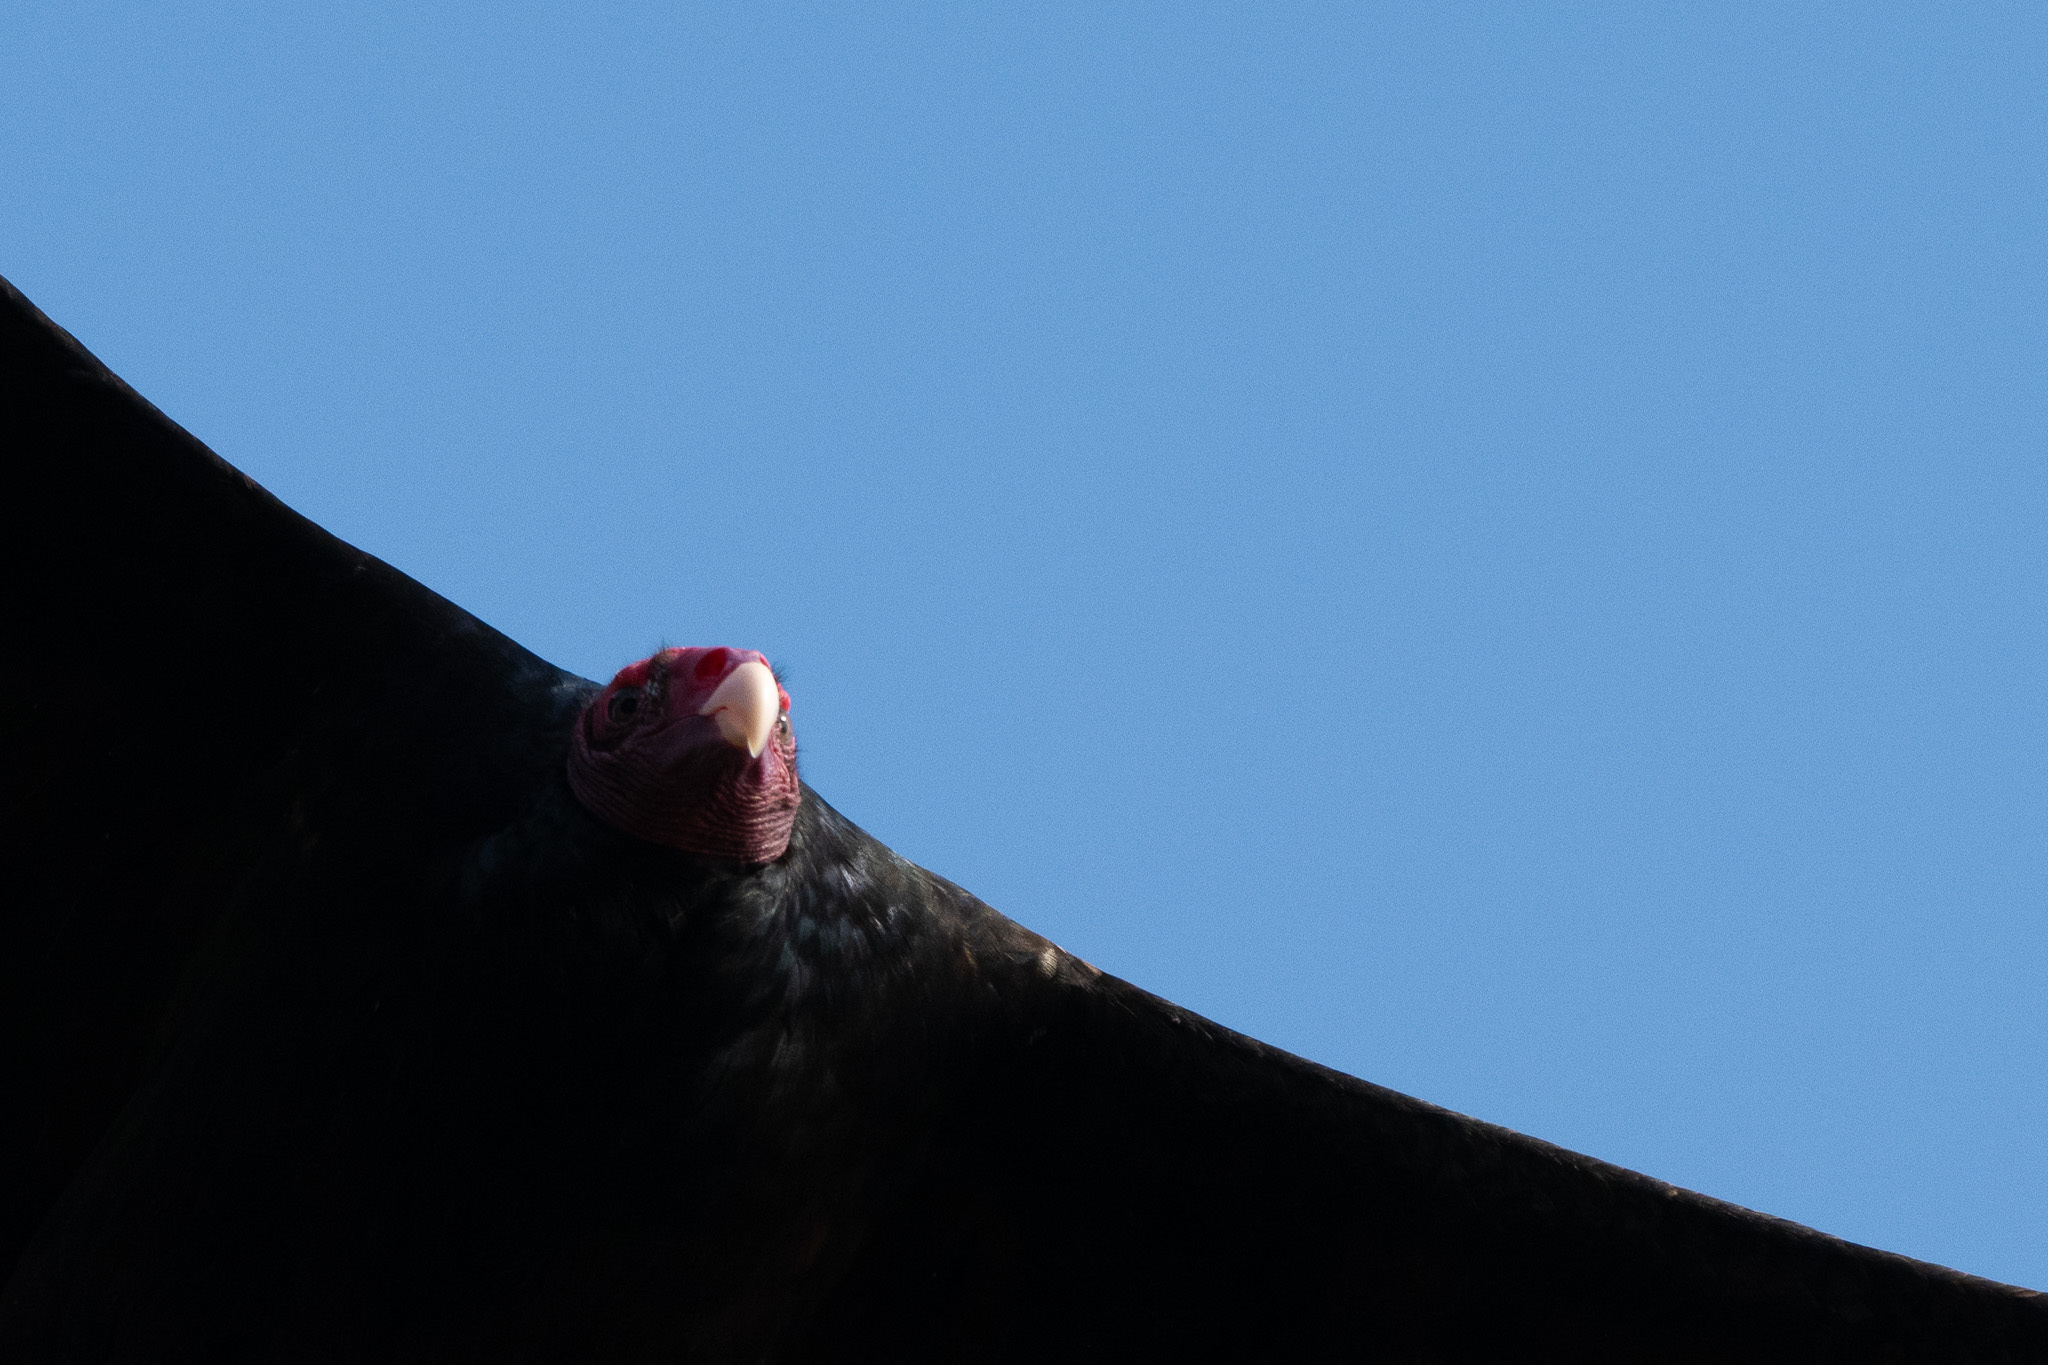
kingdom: Animalia
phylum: Chordata
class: Aves
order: Accipitriformes
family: Cathartidae
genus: Cathartes
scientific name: Cathartes aura
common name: Turkey vulture
